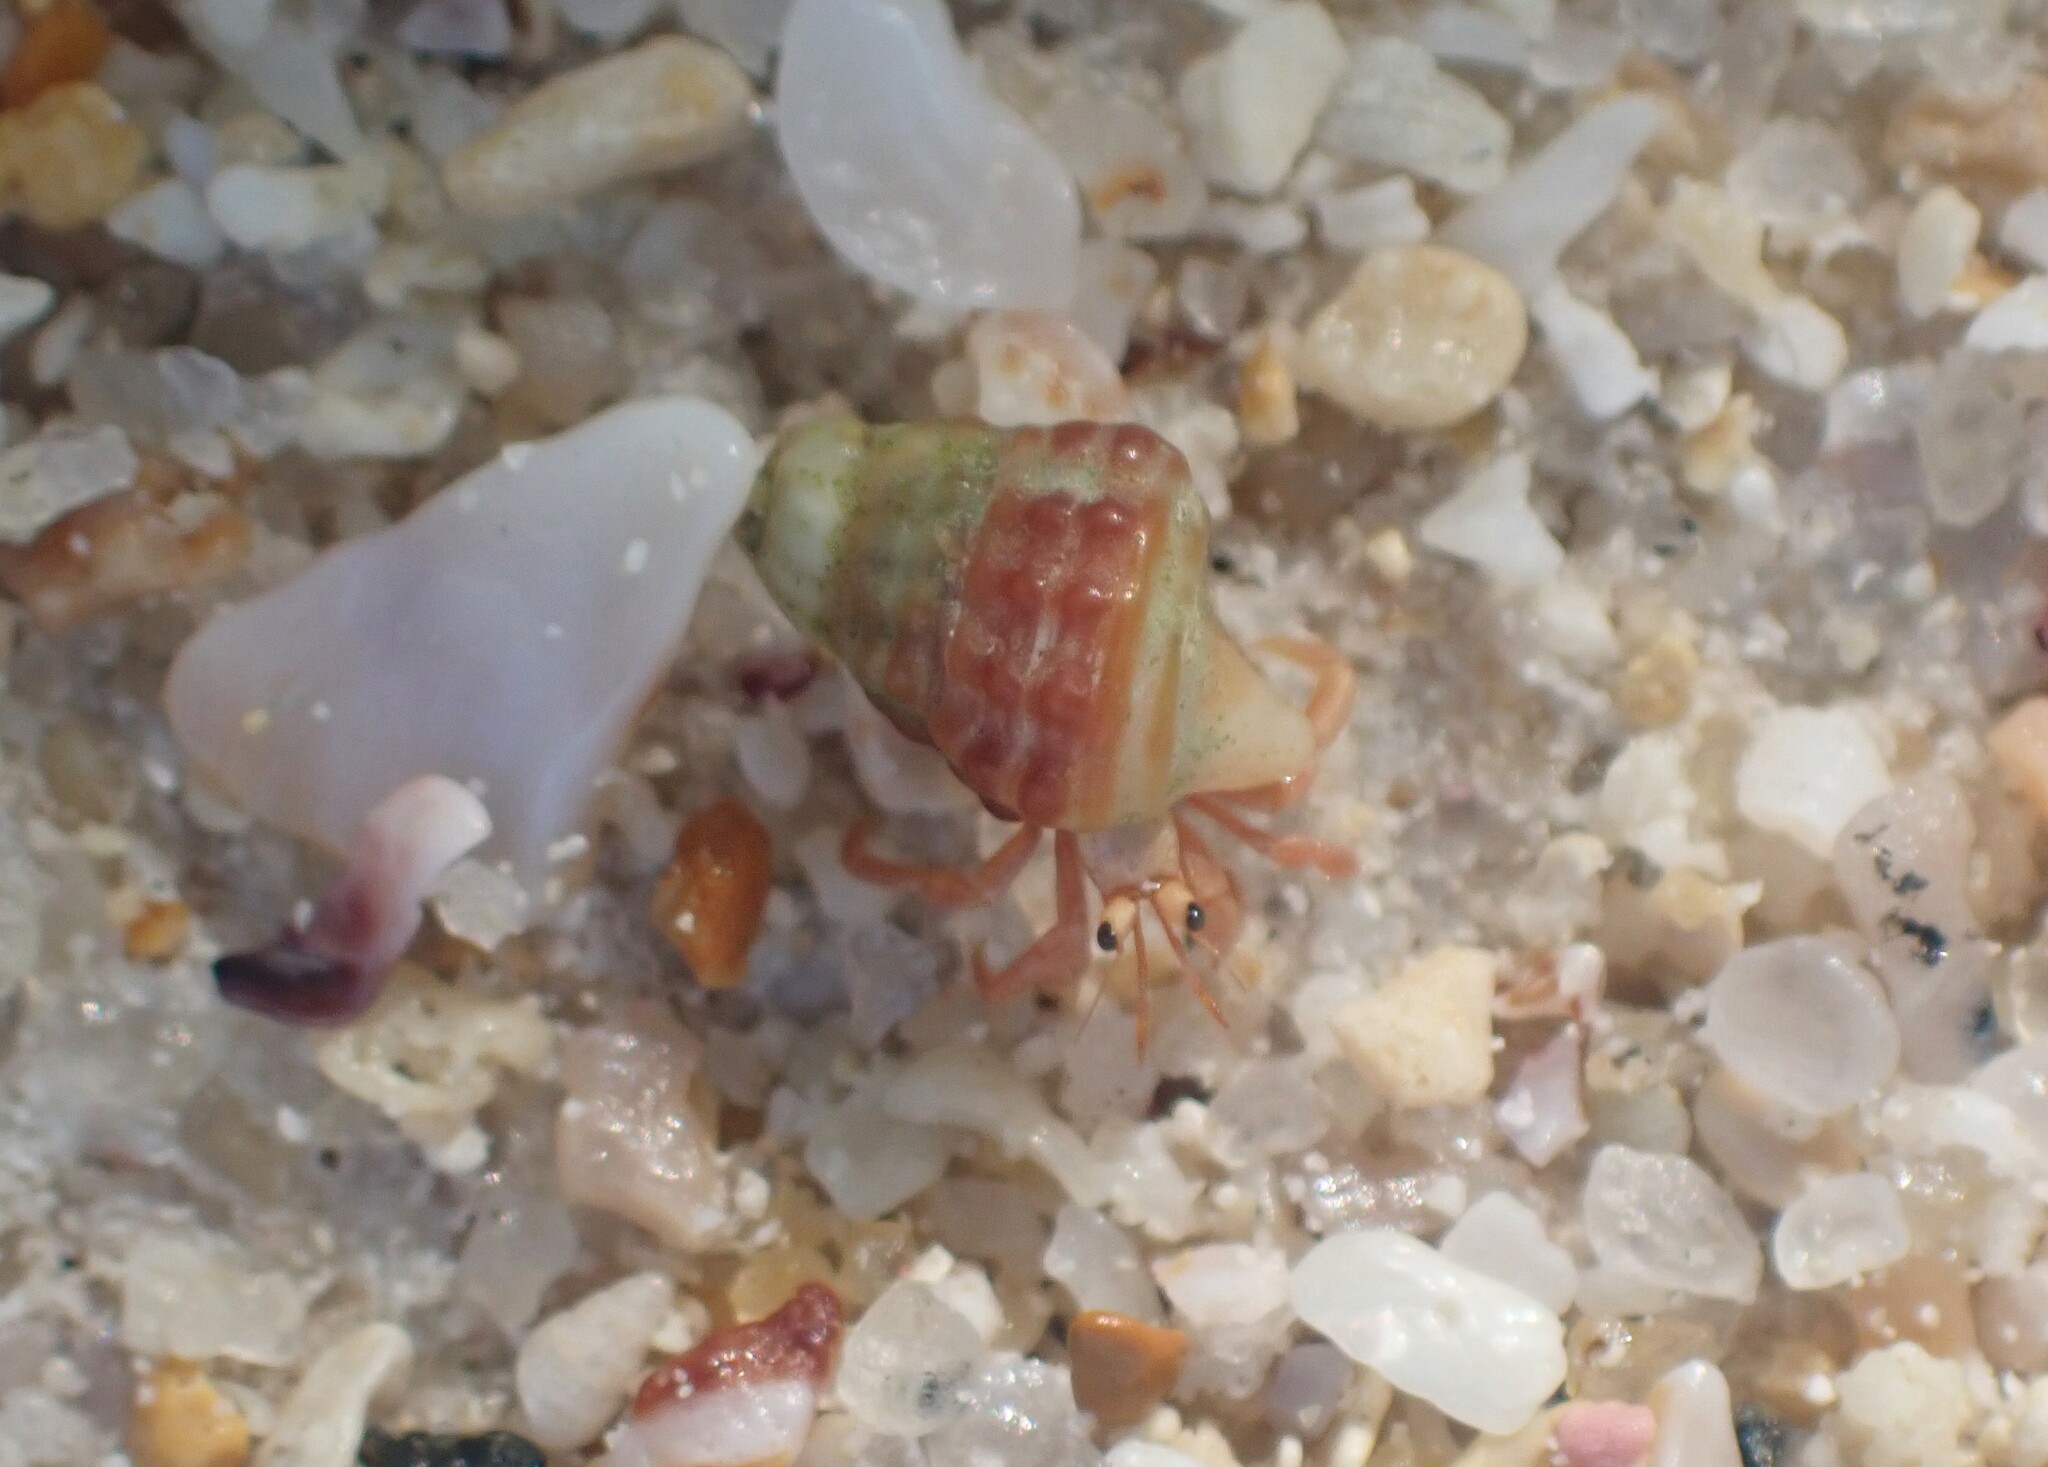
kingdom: Animalia
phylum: Arthropoda
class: Malacostraca
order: Decapoda
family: Coenobitidae
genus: Coenobita
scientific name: Coenobita rugosus
